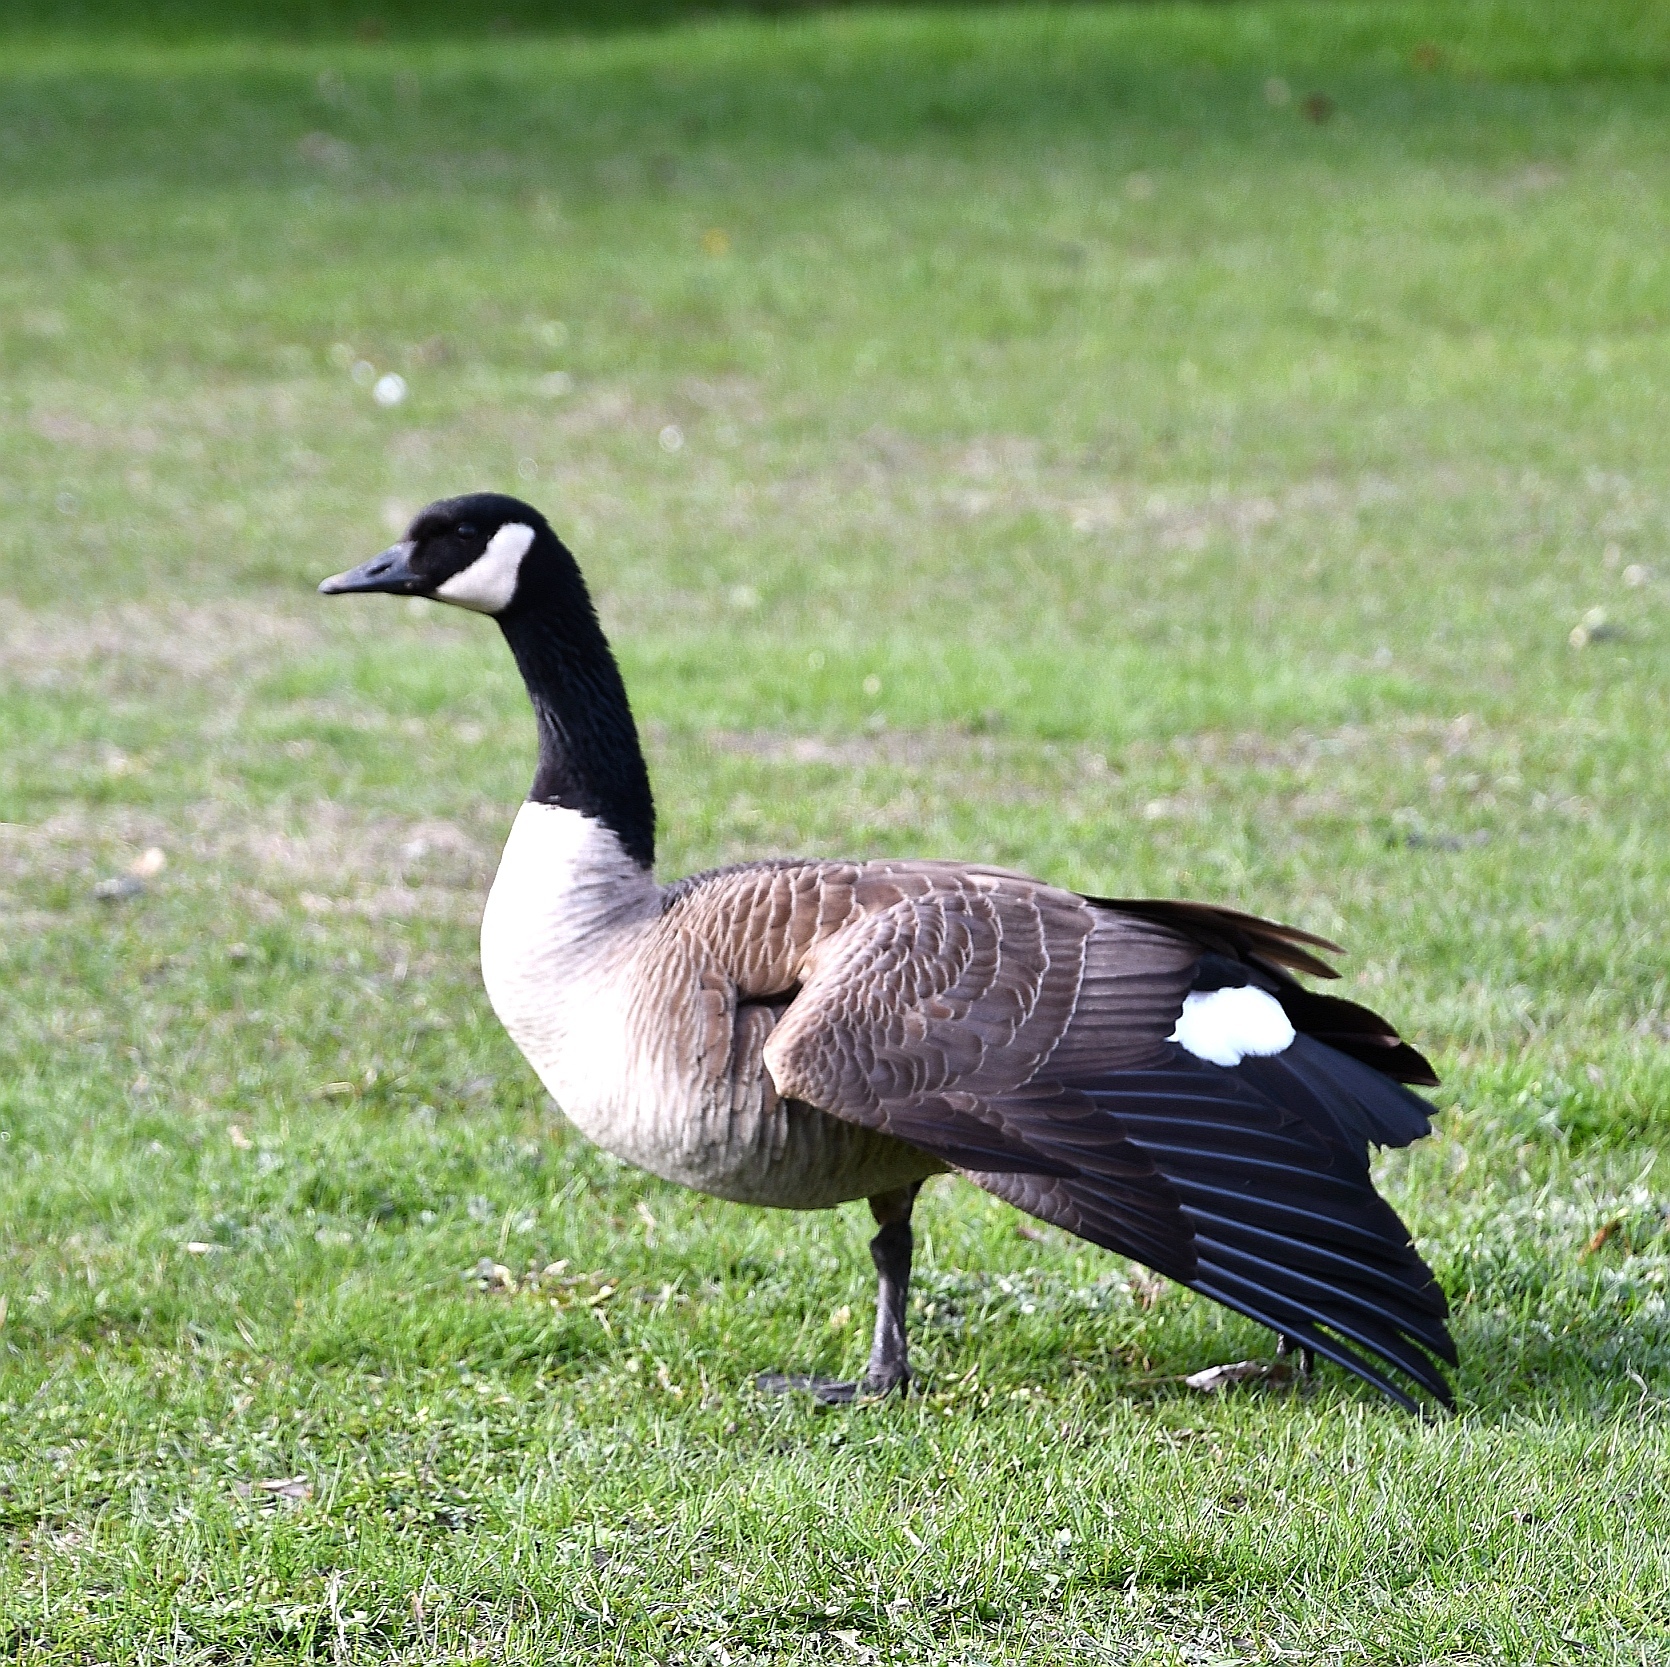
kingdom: Animalia
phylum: Chordata
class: Aves
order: Anseriformes
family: Anatidae
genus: Branta
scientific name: Branta canadensis
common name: Canada goose
